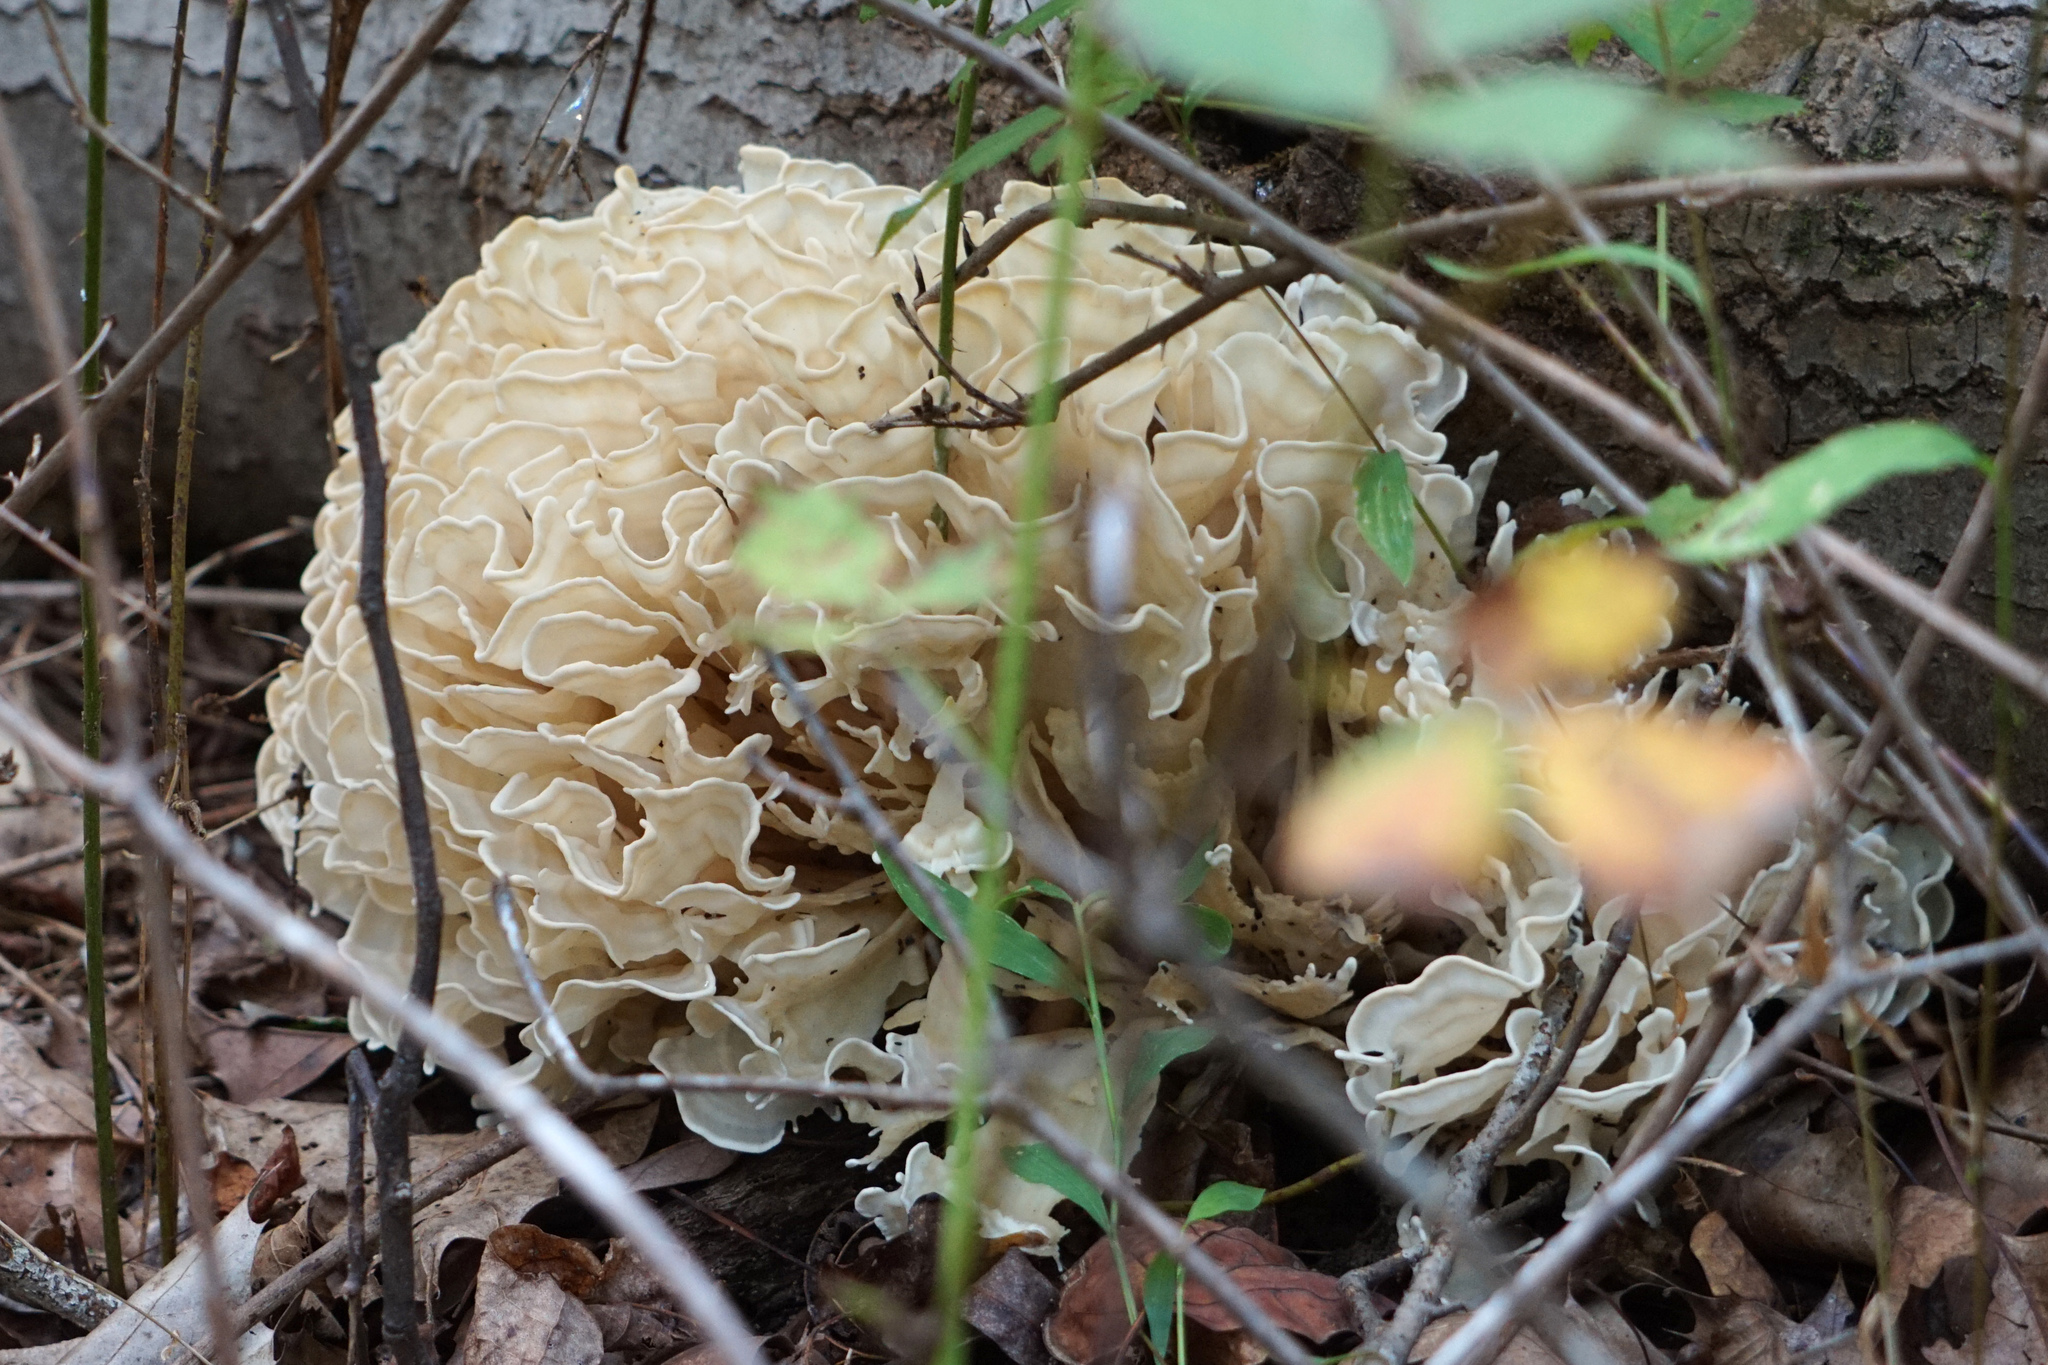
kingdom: Fungi
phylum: Basidiomycota
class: Agaricomycetes
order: Polyporales
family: Sparassidaceae
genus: Sparassis
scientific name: Sparassis spathulata
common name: Eastern cauliflower mushroom
